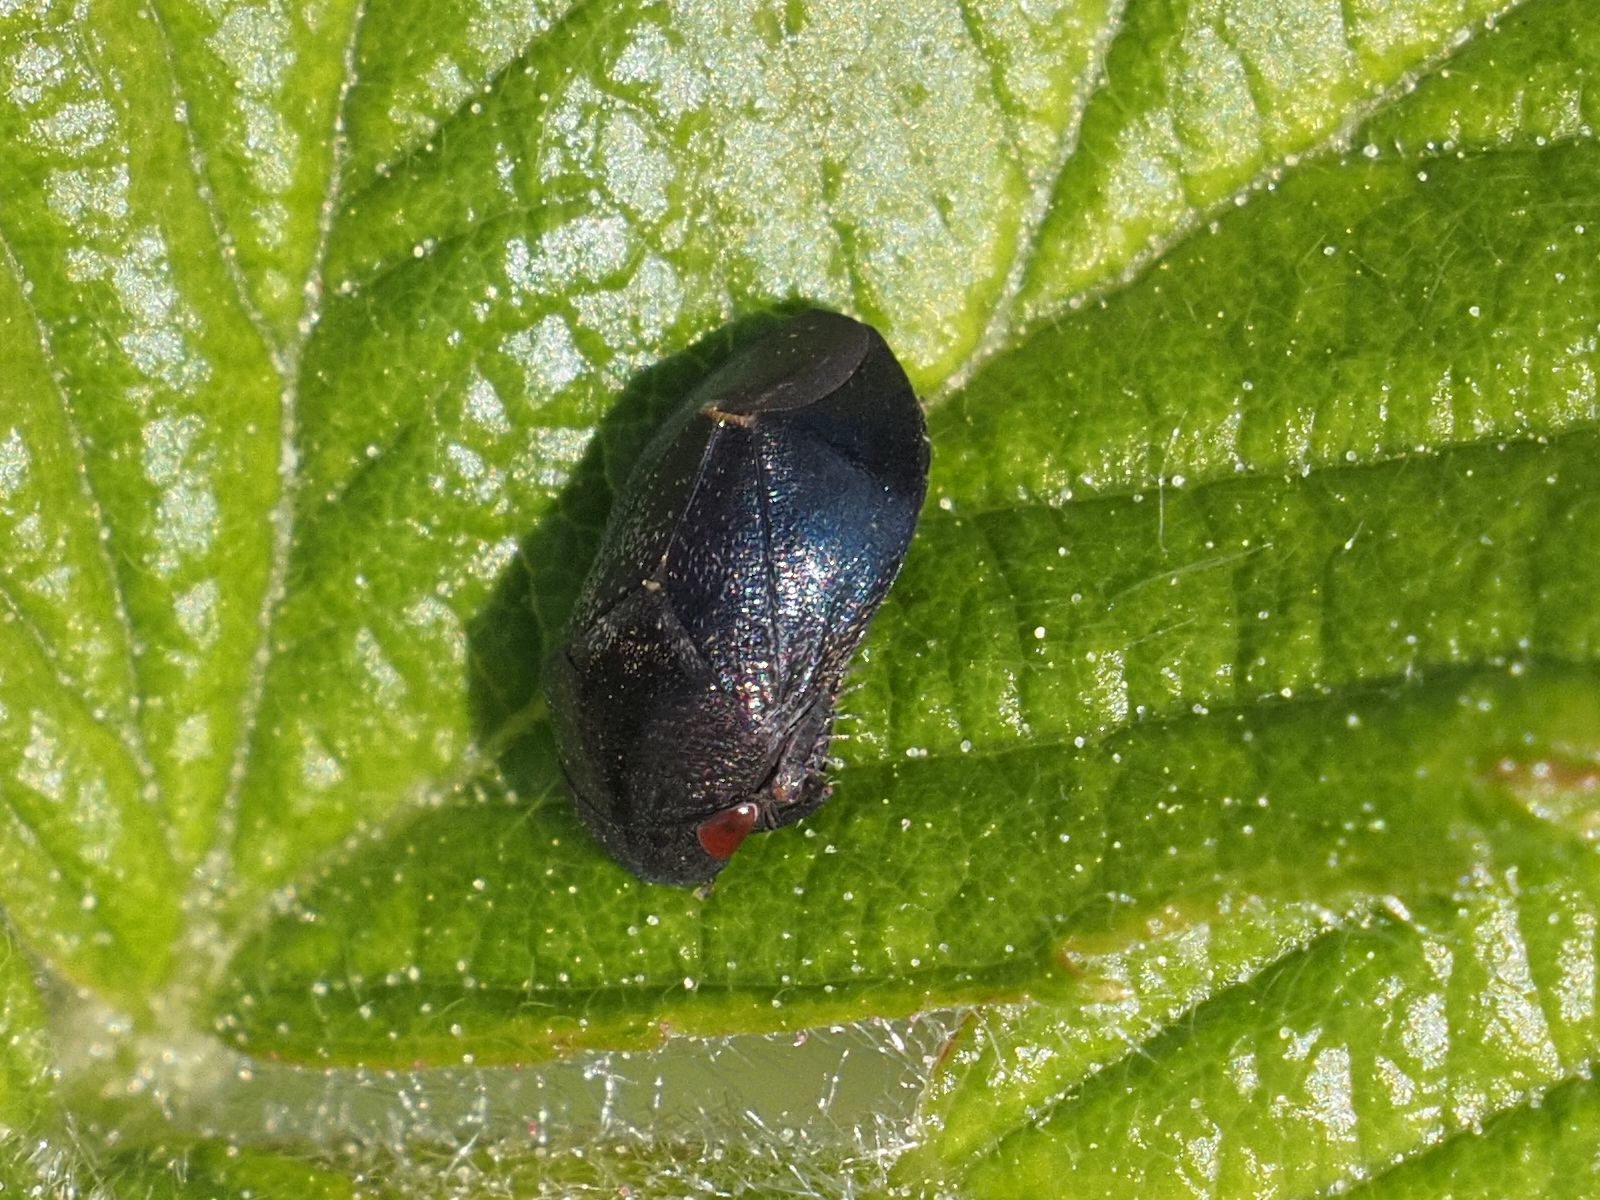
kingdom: Animalia
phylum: Arthropoda
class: Insecta
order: Hemiptera
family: Cicadellidae
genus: Penthimia
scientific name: Penthimia nigra
